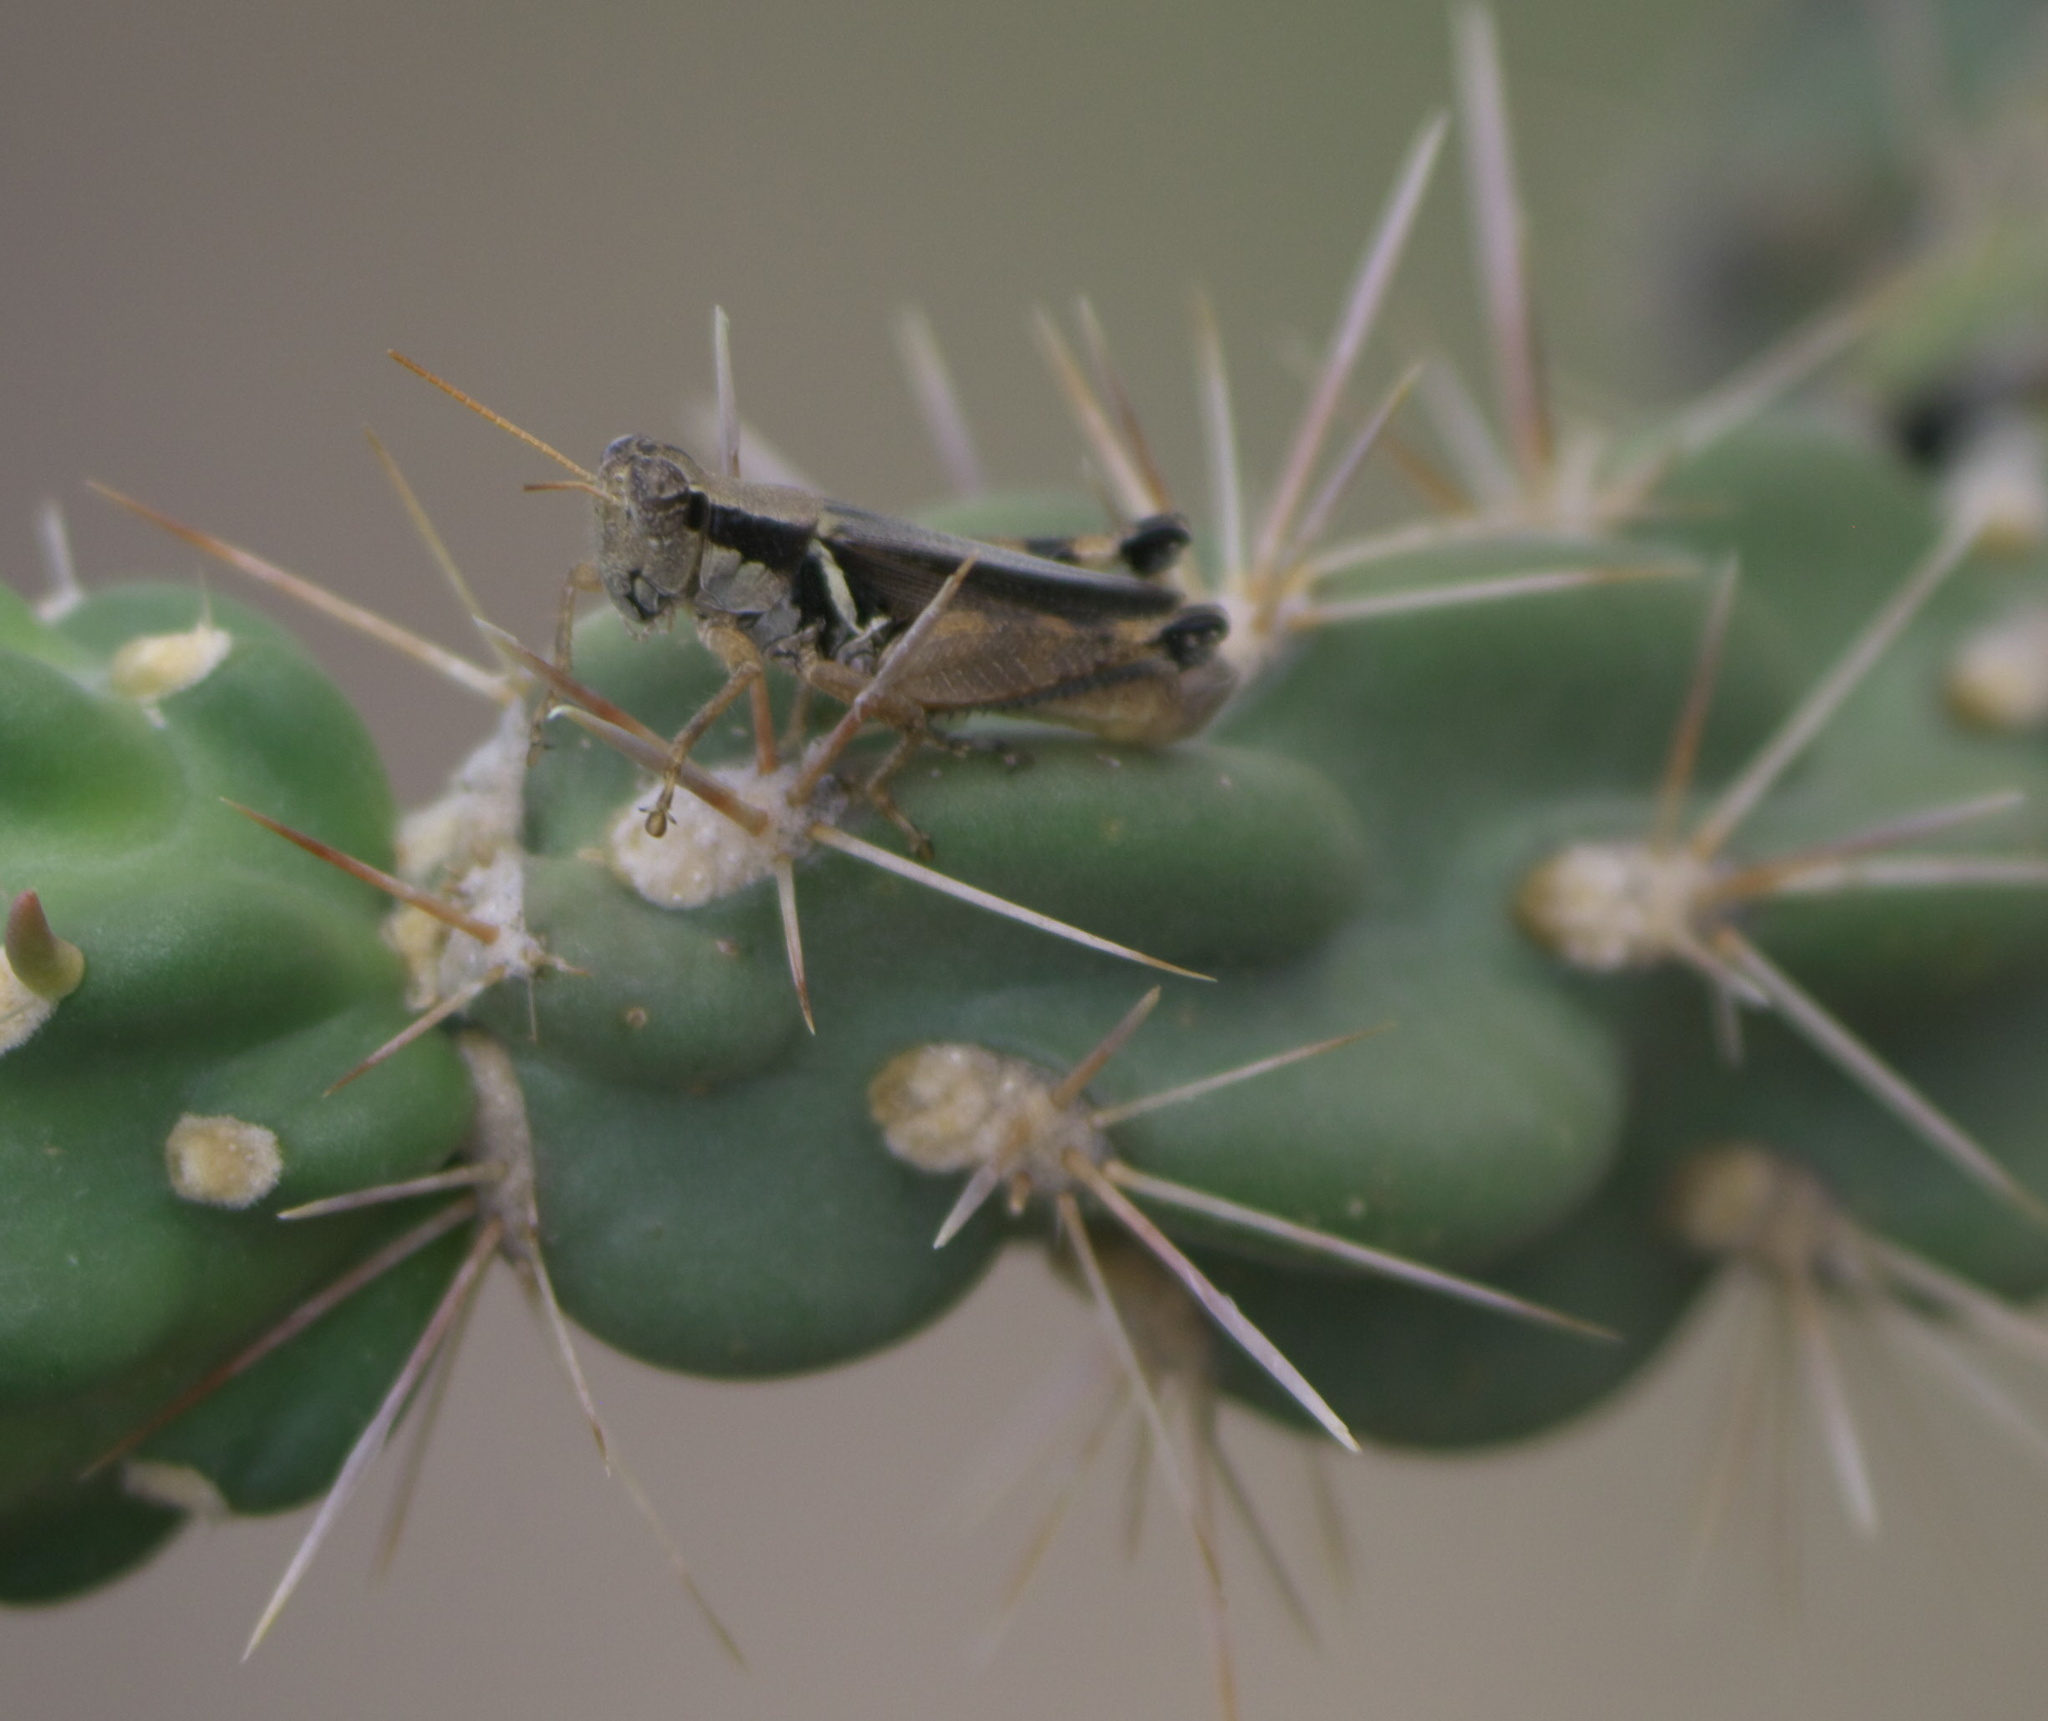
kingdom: Animalia
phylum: Arthropoda
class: Insecta
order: Orthoptera
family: Acrididae
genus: Melanoplus
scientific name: Melanoplus glaucipes
